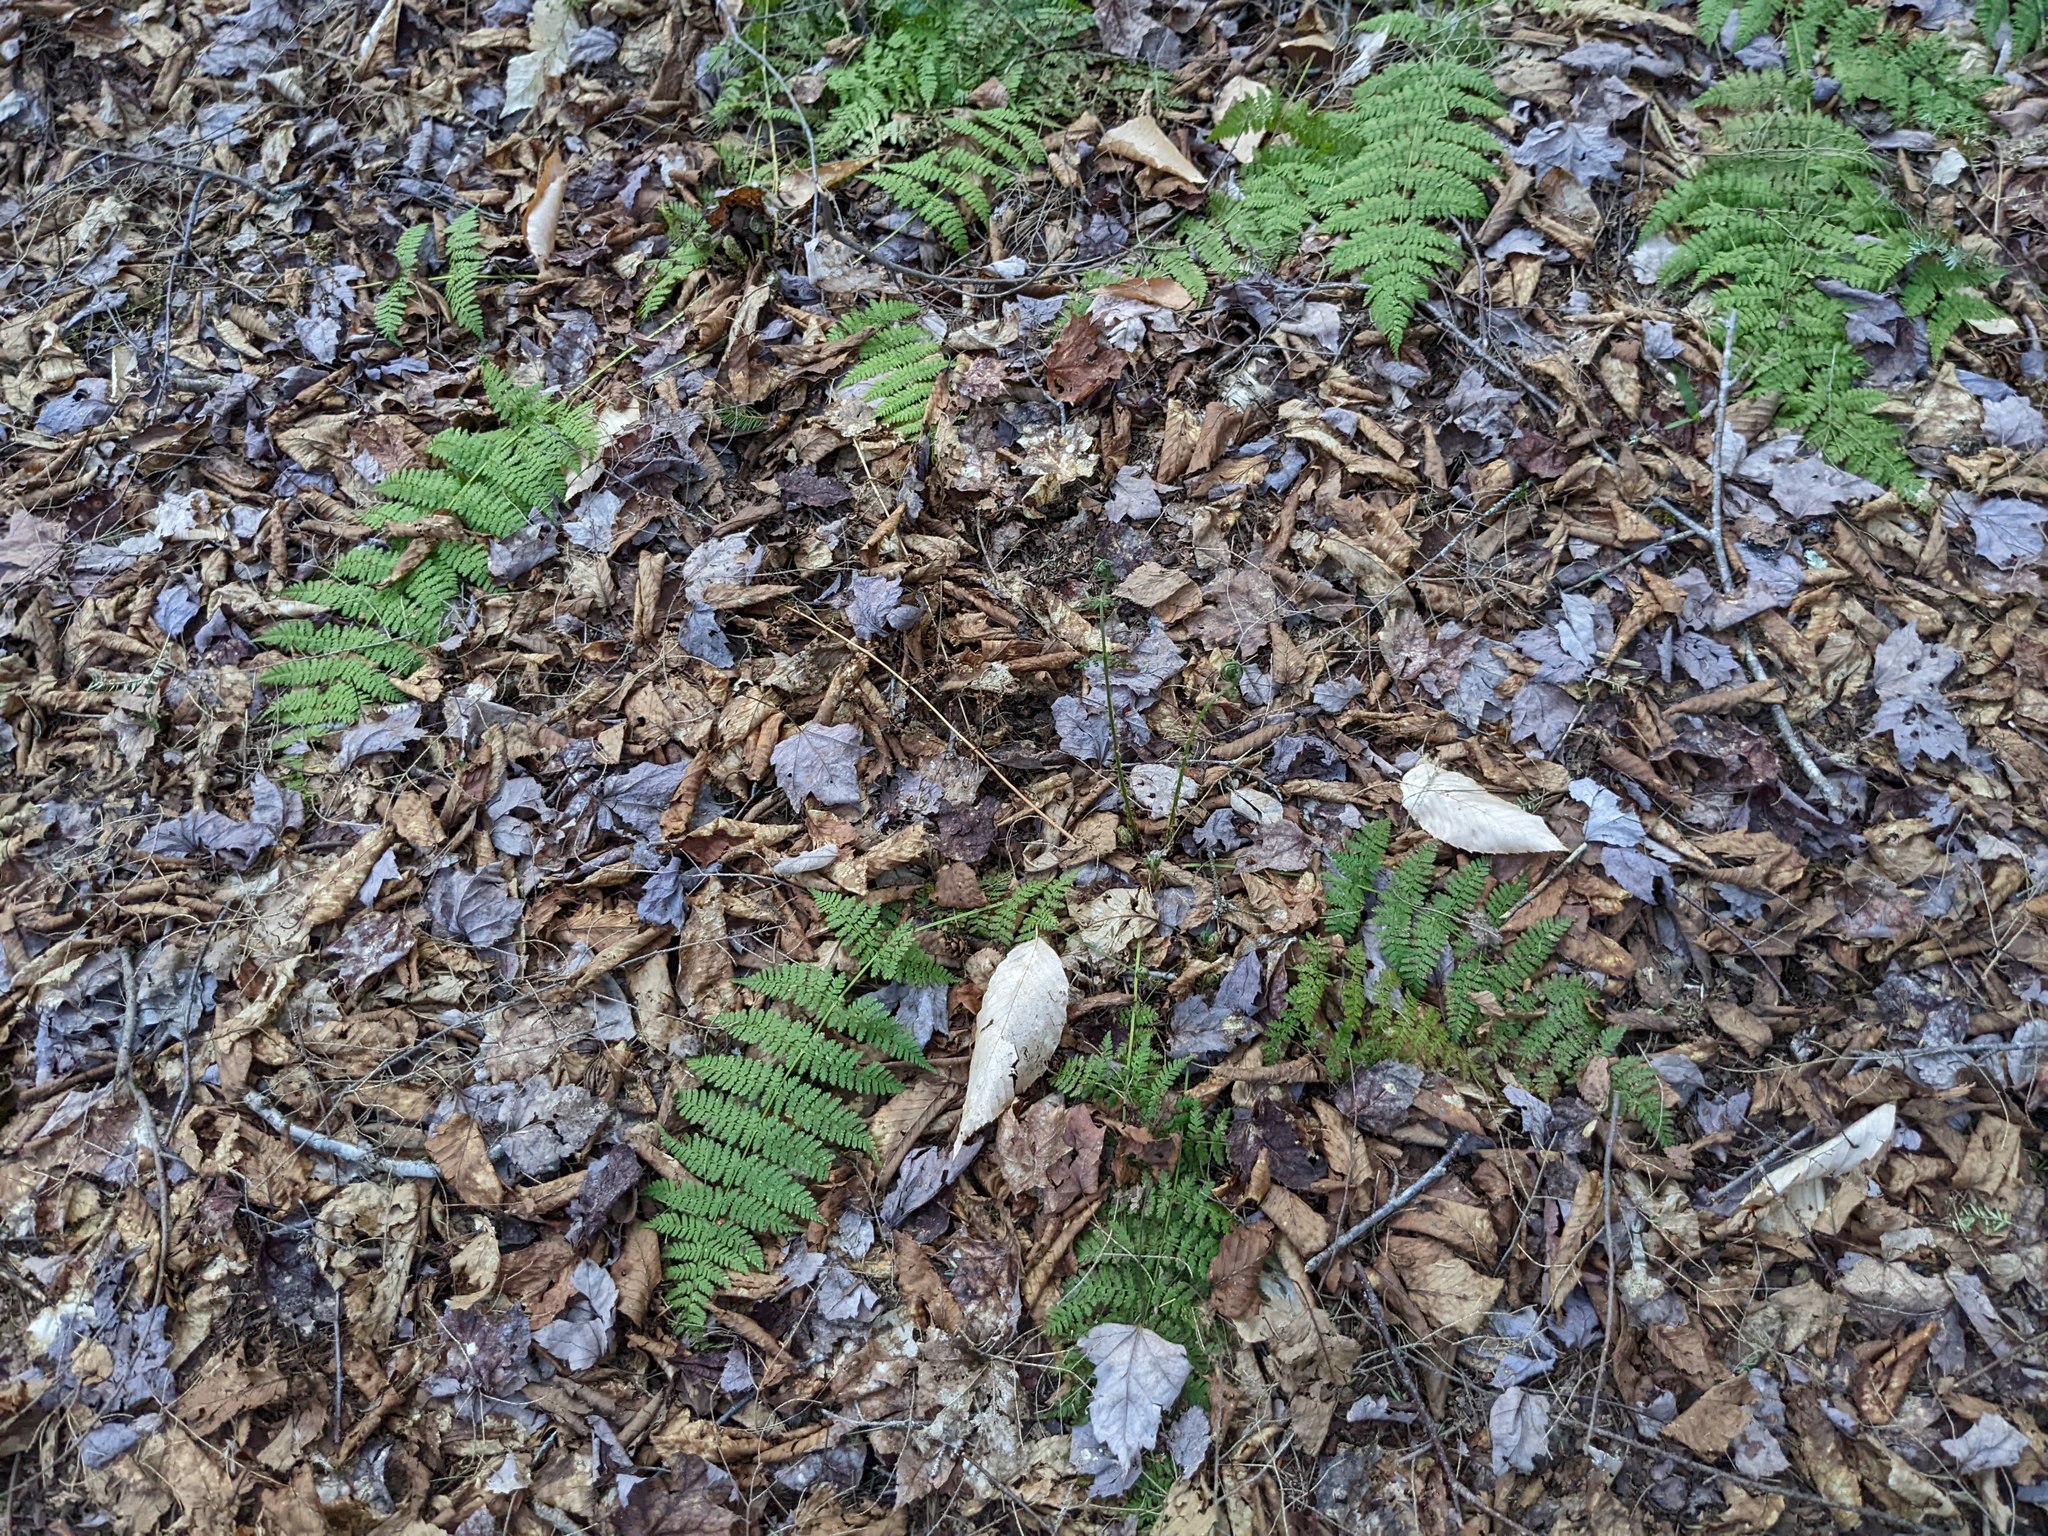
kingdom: Plantae
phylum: Tracheophyta
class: Polypodiopsida
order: Polypodiales
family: Dryopteridaceae
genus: Dryopteris
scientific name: Dryopteris intermedia
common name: Evergreen wood fern
